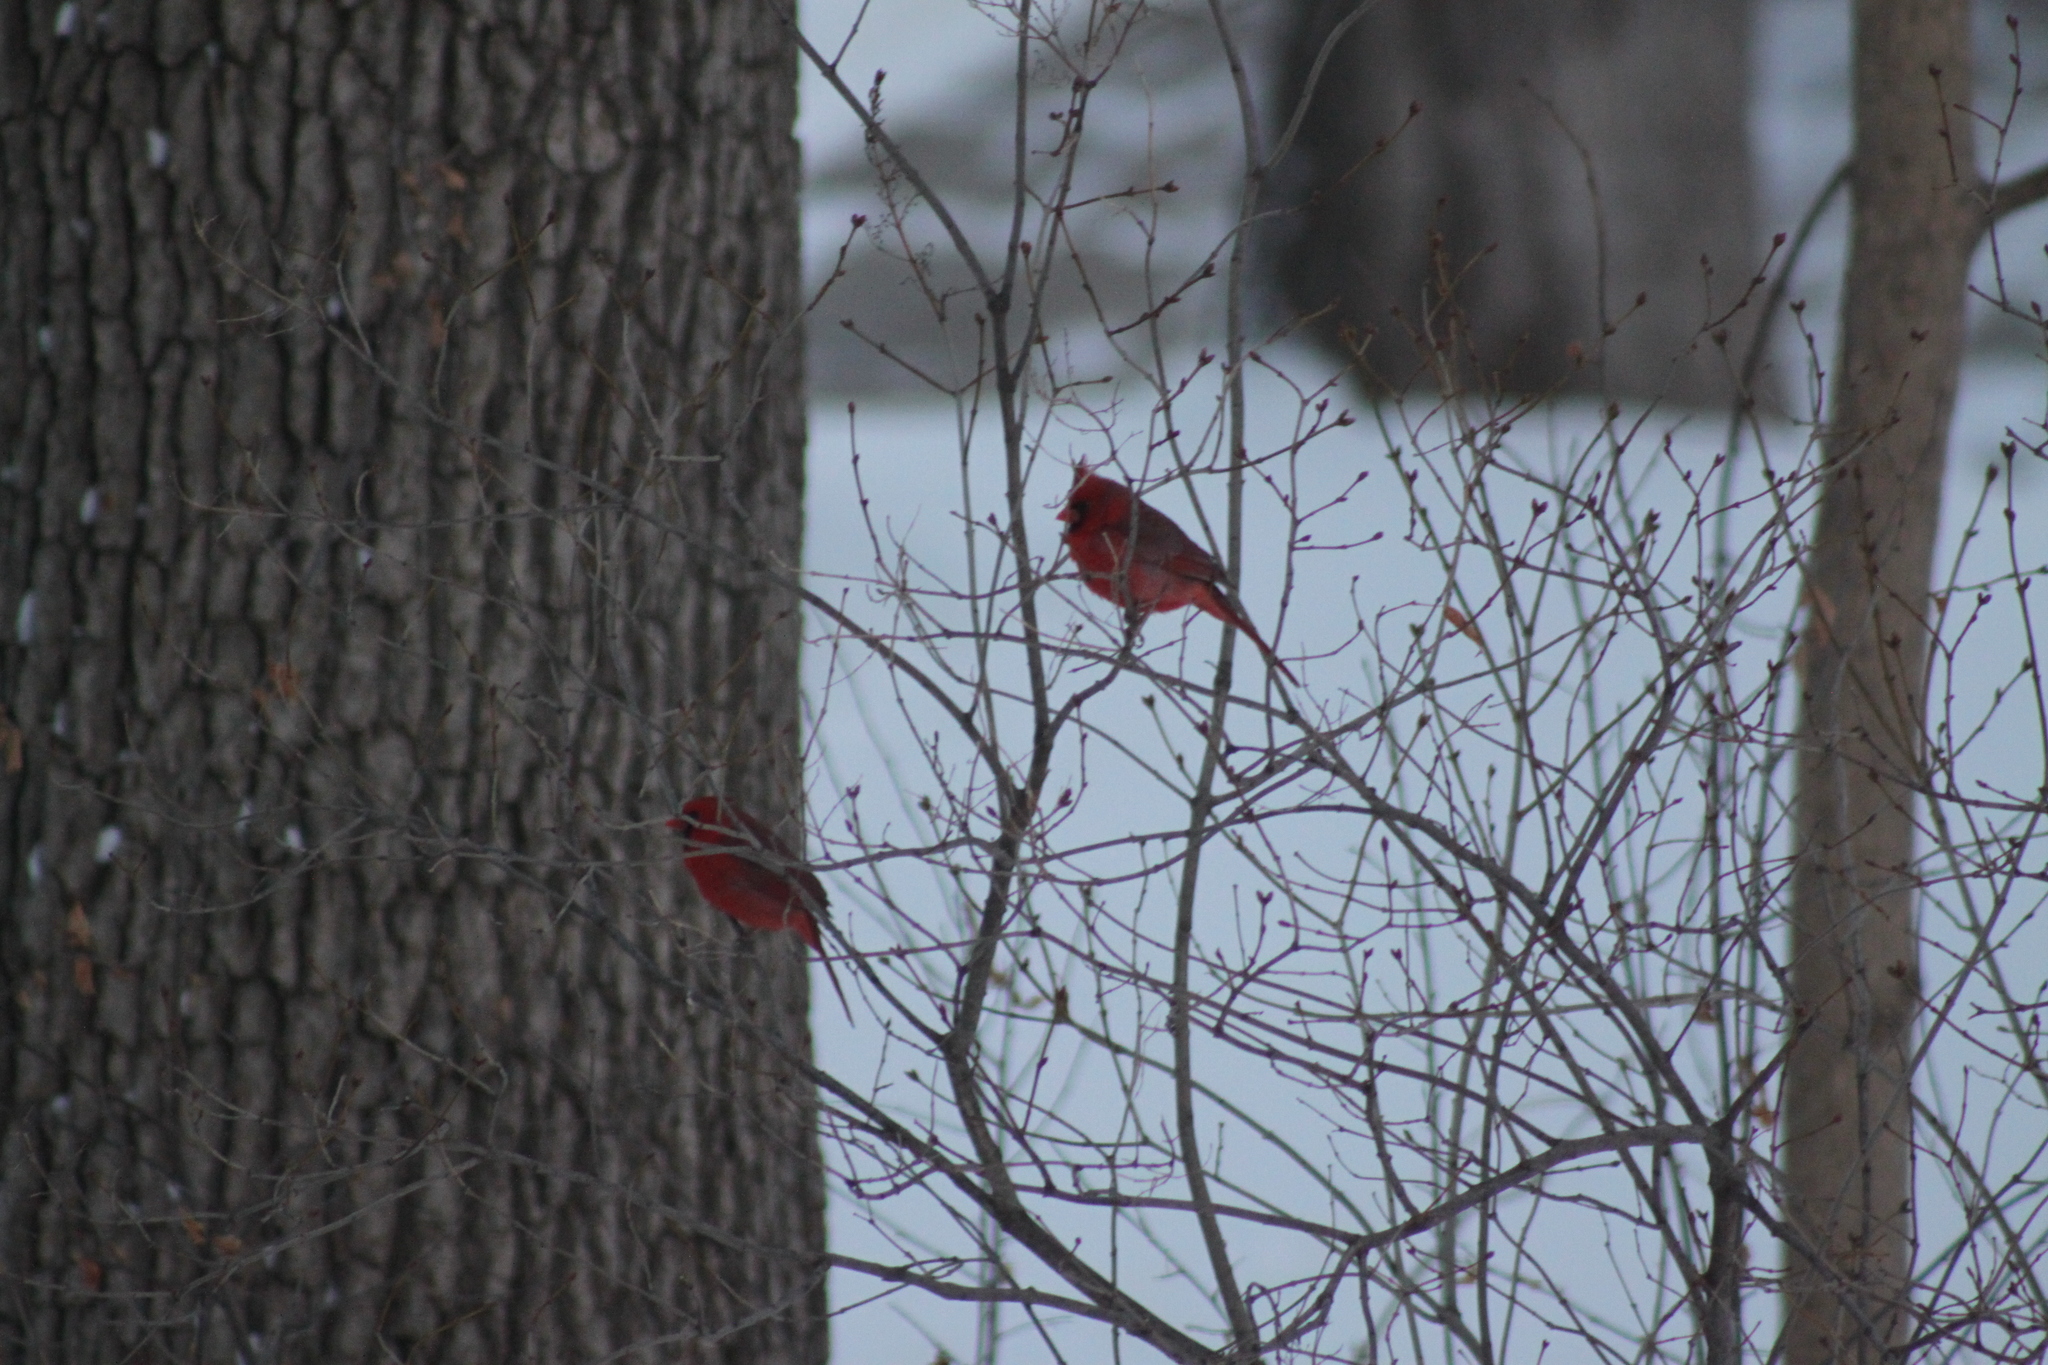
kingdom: Animalia
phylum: Chordata
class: Aves
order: Passeriformes
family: Cardinalidae
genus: Cardinalis
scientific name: Cardinalis cardinalis
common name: Northern cardinal
